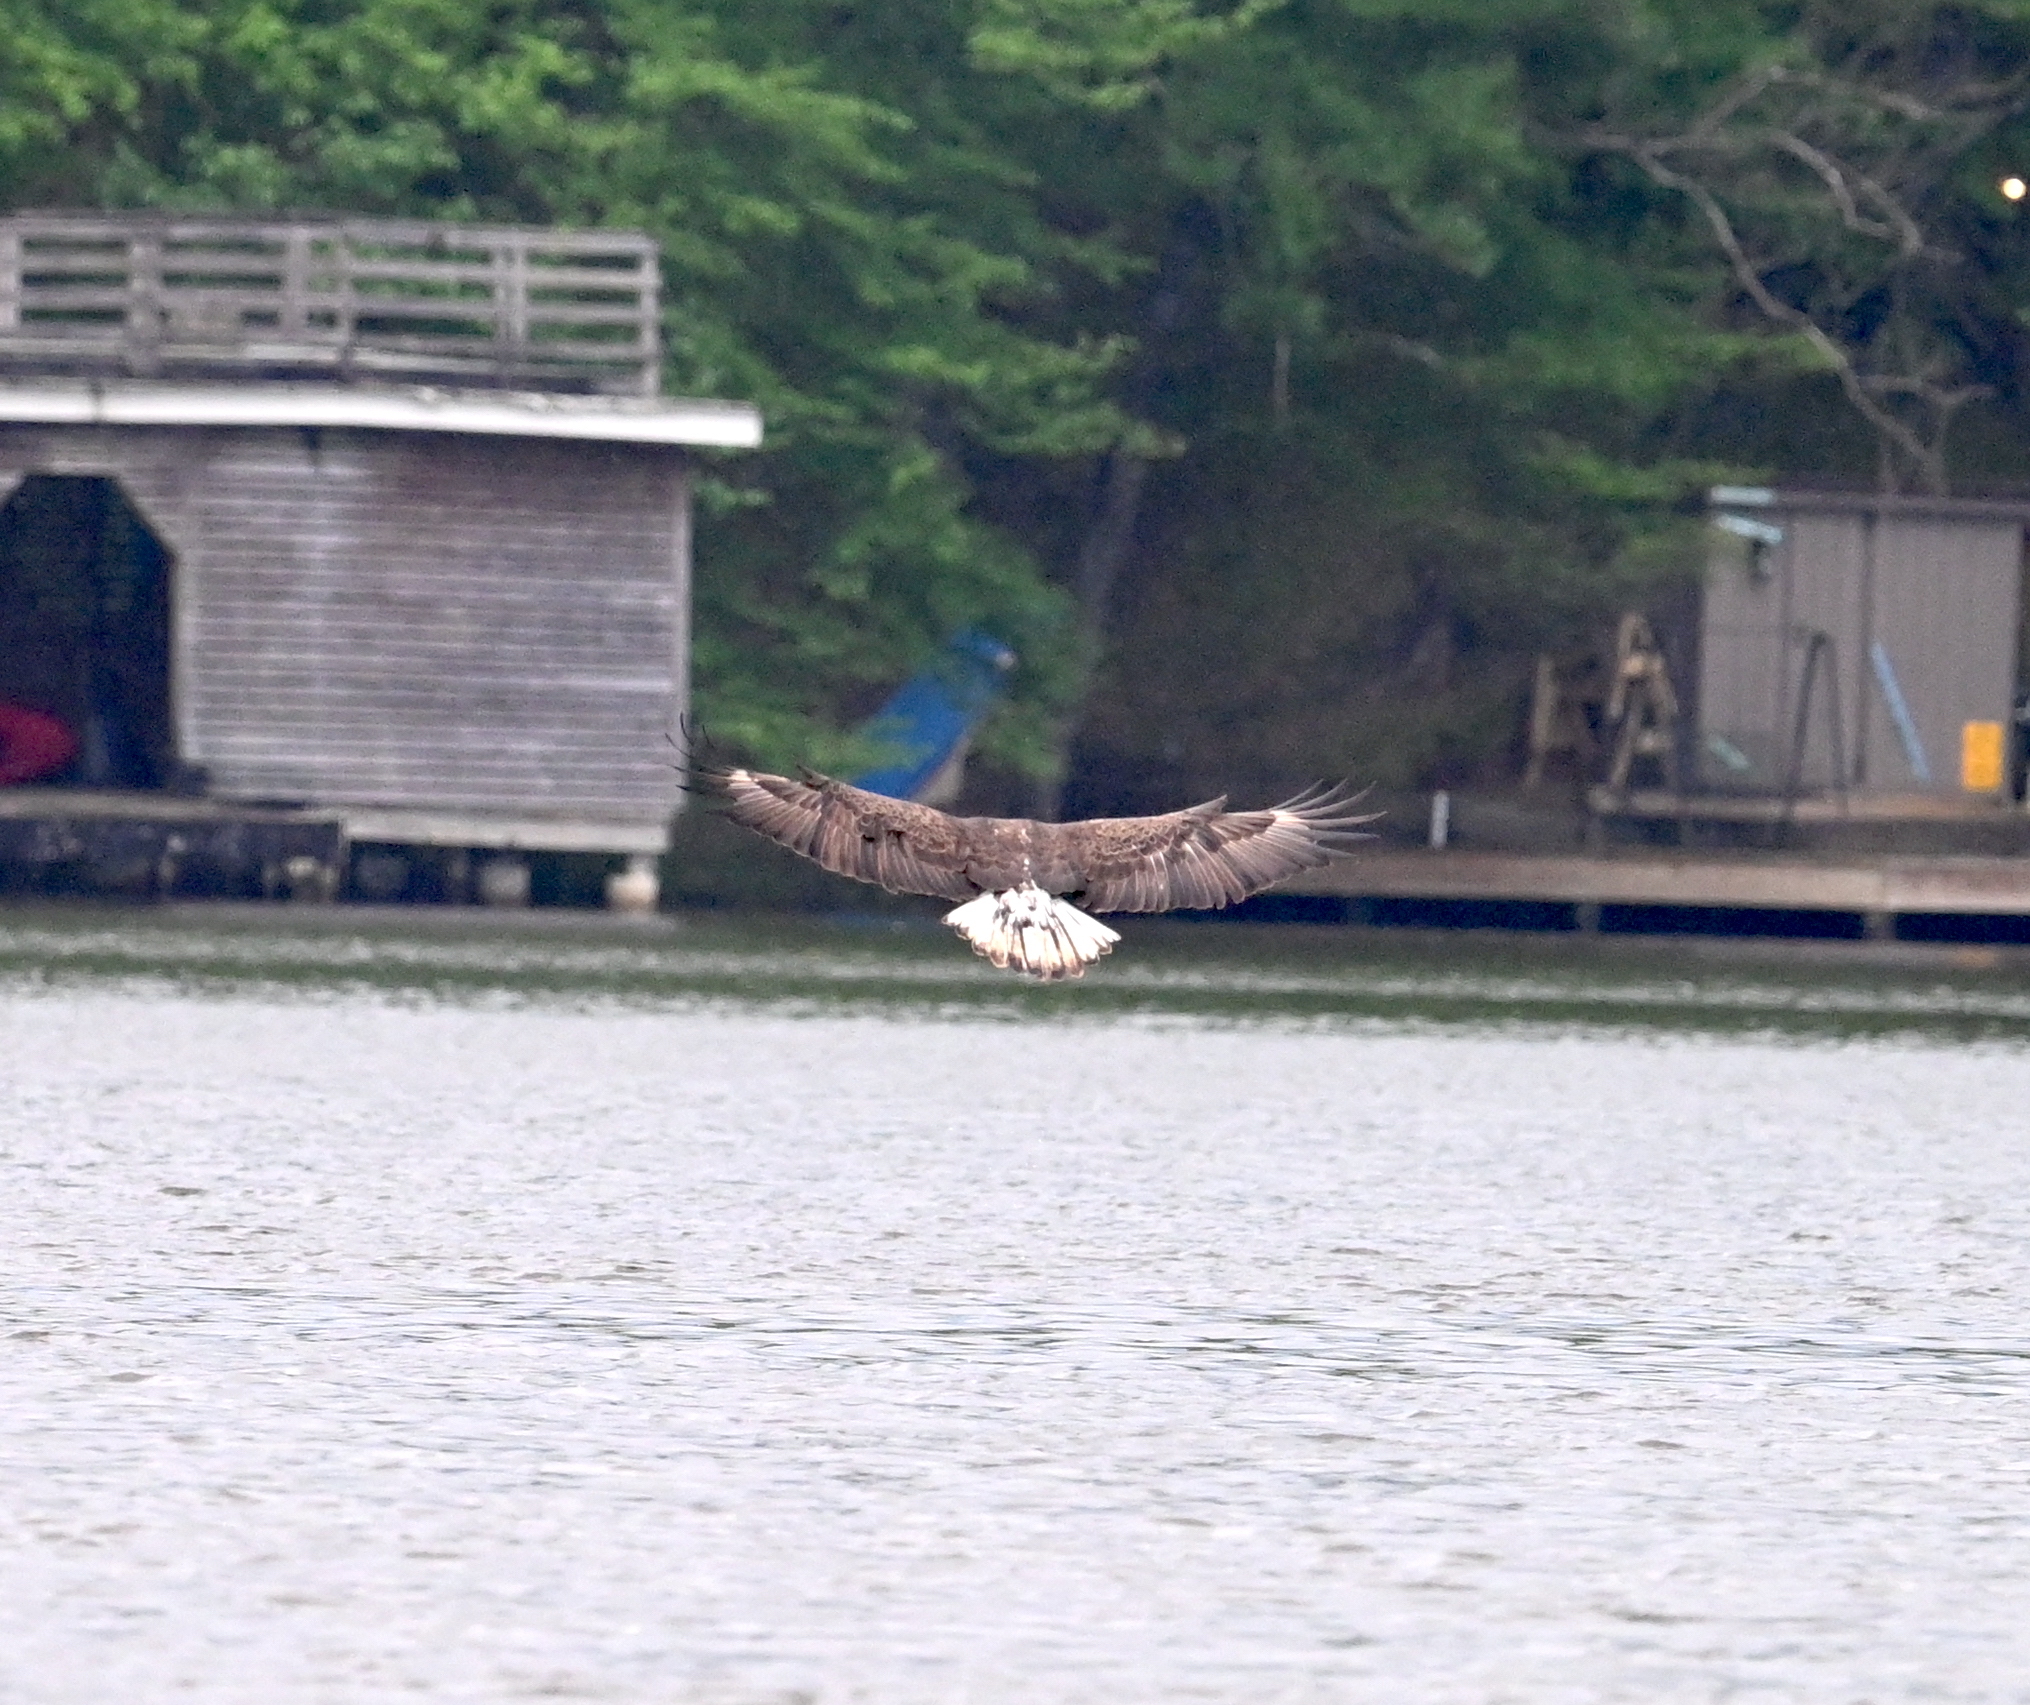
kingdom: Animalia
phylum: Chordata
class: Aves
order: Accipitriformes
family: Accipitridae
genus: Haliaeetus
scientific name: Haliaeetus leucocephalus
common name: Bald eagle
